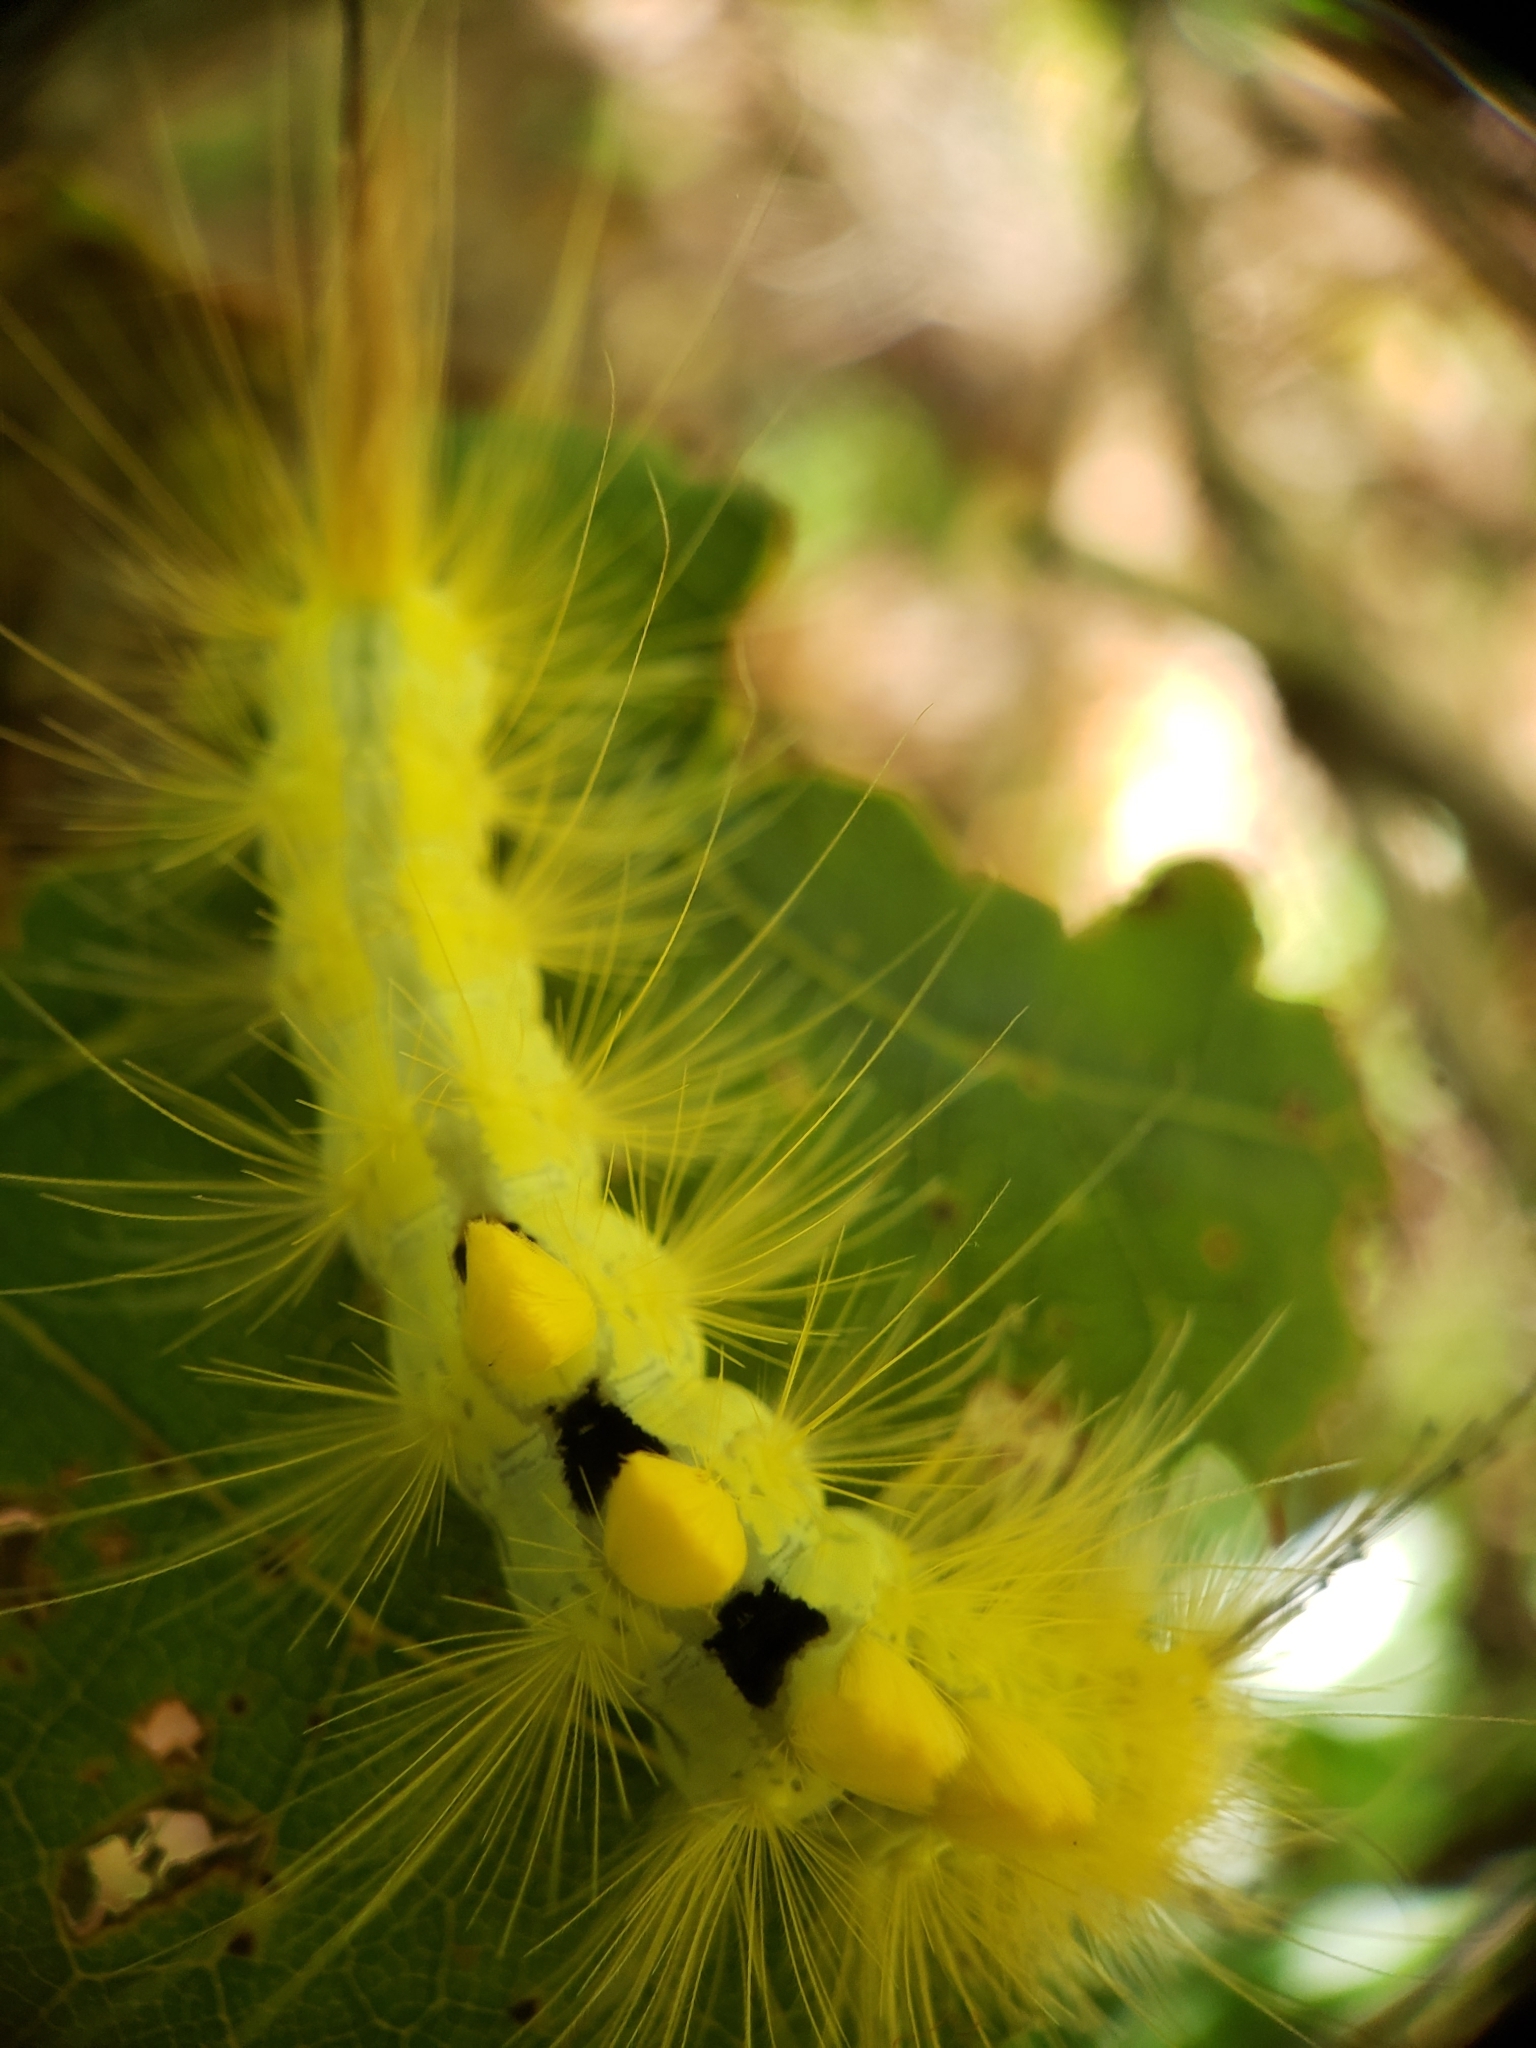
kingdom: Animalia
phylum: Arthropoda
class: Insecta
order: Lepidoptera
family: Erebidae
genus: Orgyia
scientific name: Orgyia definita
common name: Definite tussock moth
